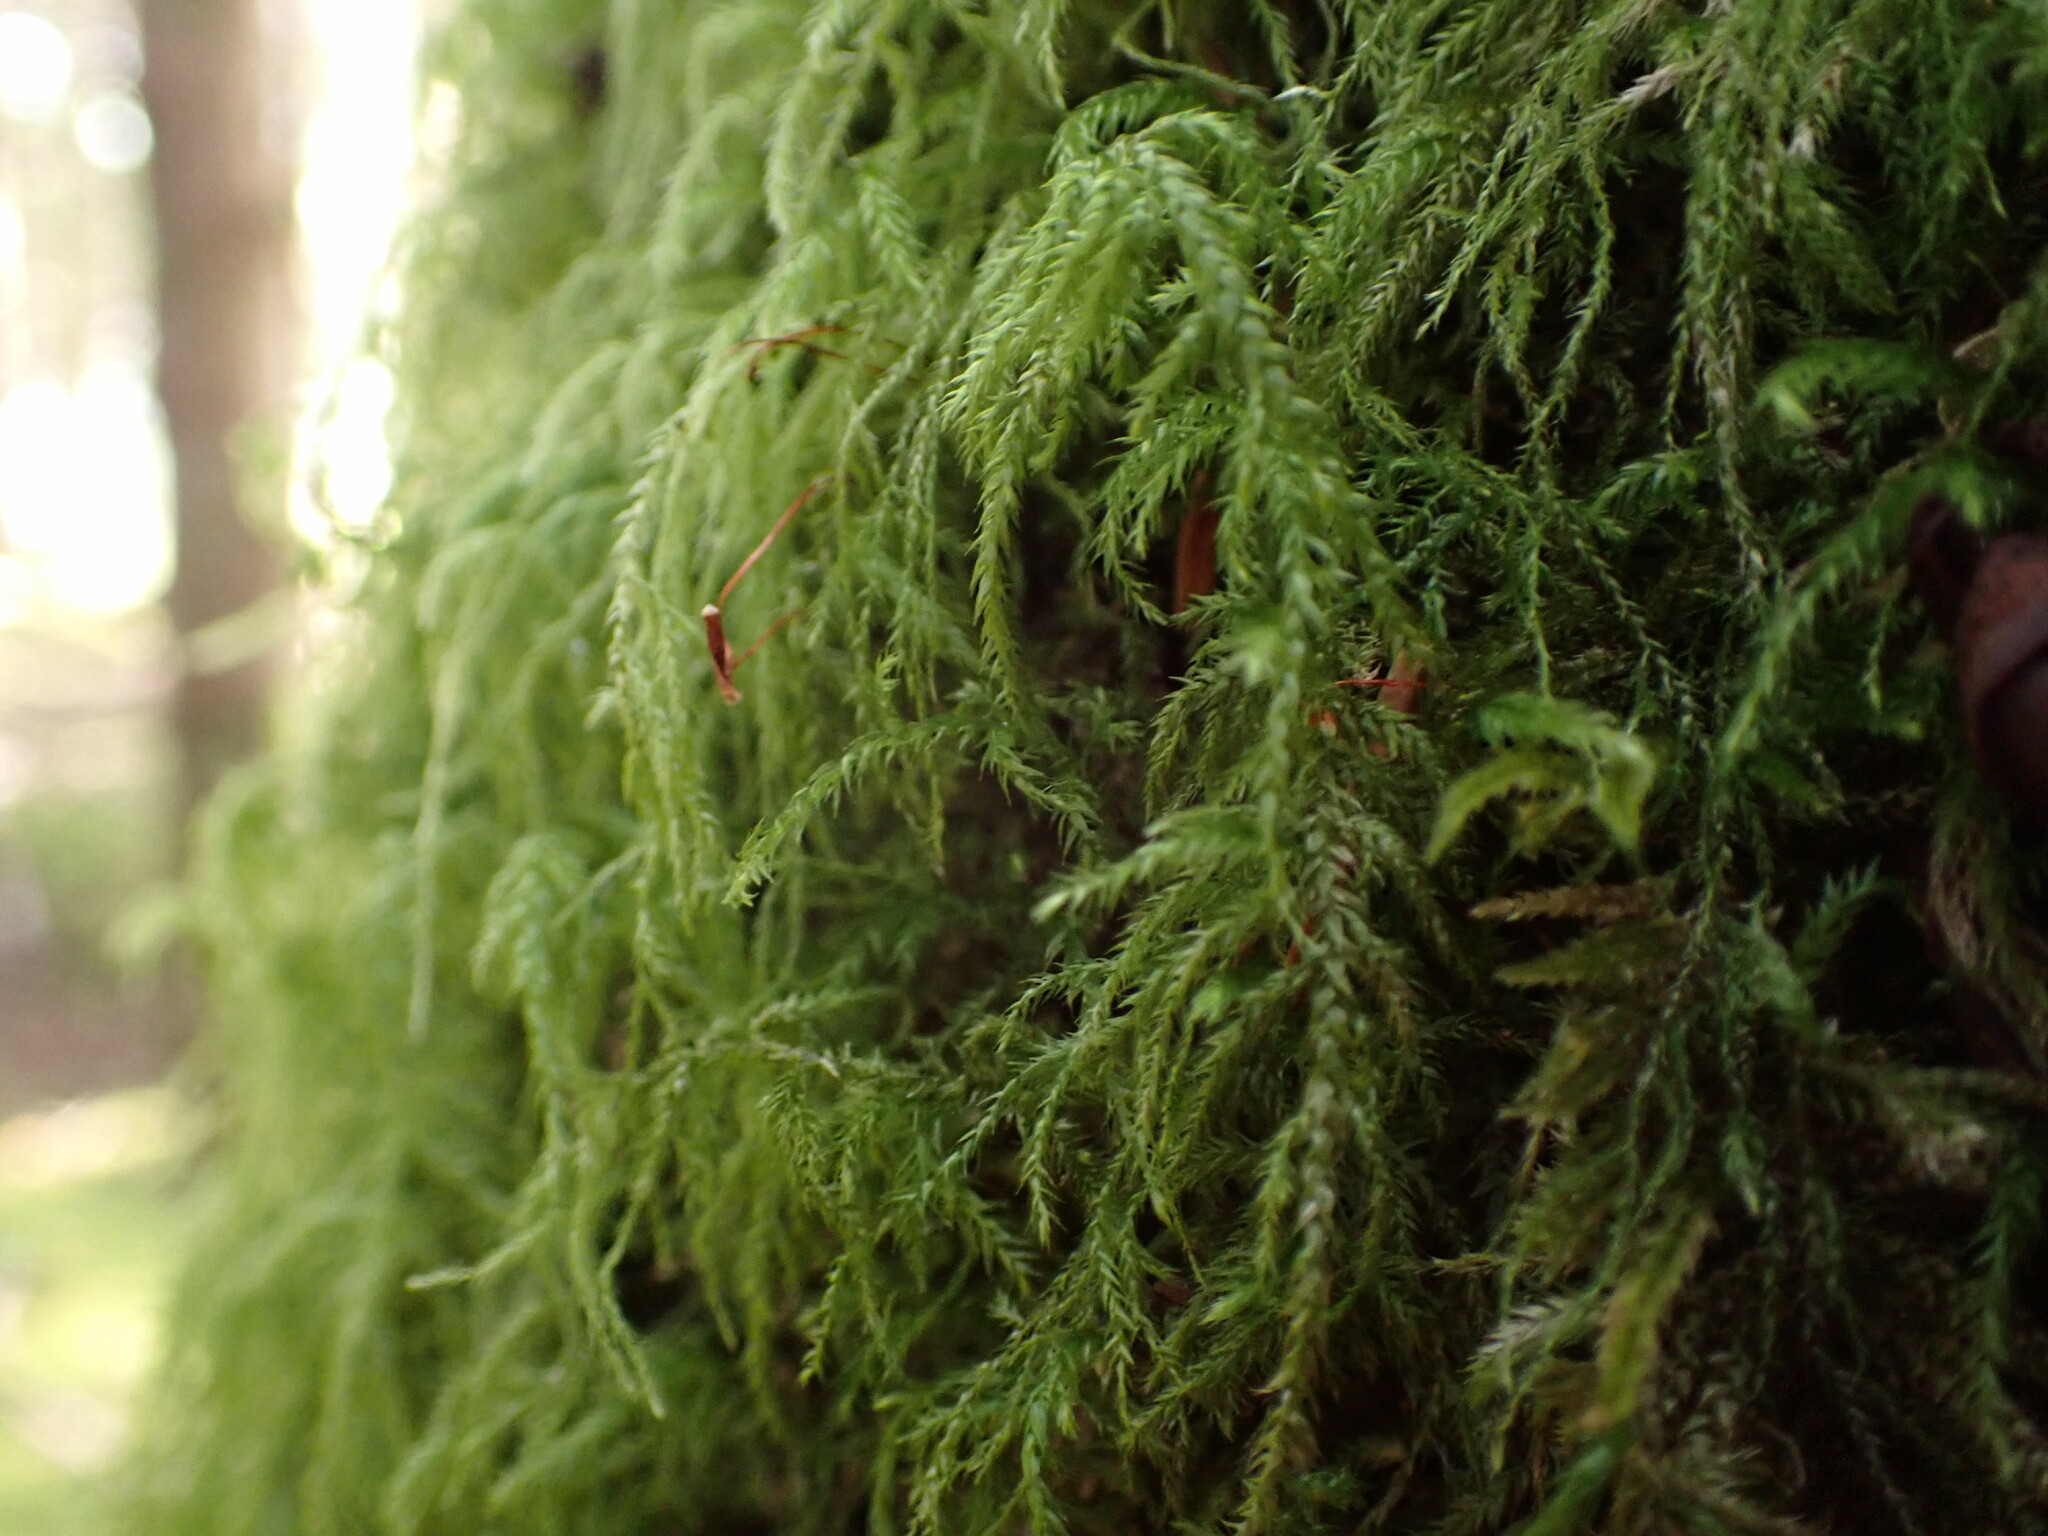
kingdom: Plantae
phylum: Bryophyta
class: Bryopsida
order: Hypnales
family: Lembophyllaceae
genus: Pseudisothecium
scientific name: Pseudisothecium stoloniferum
